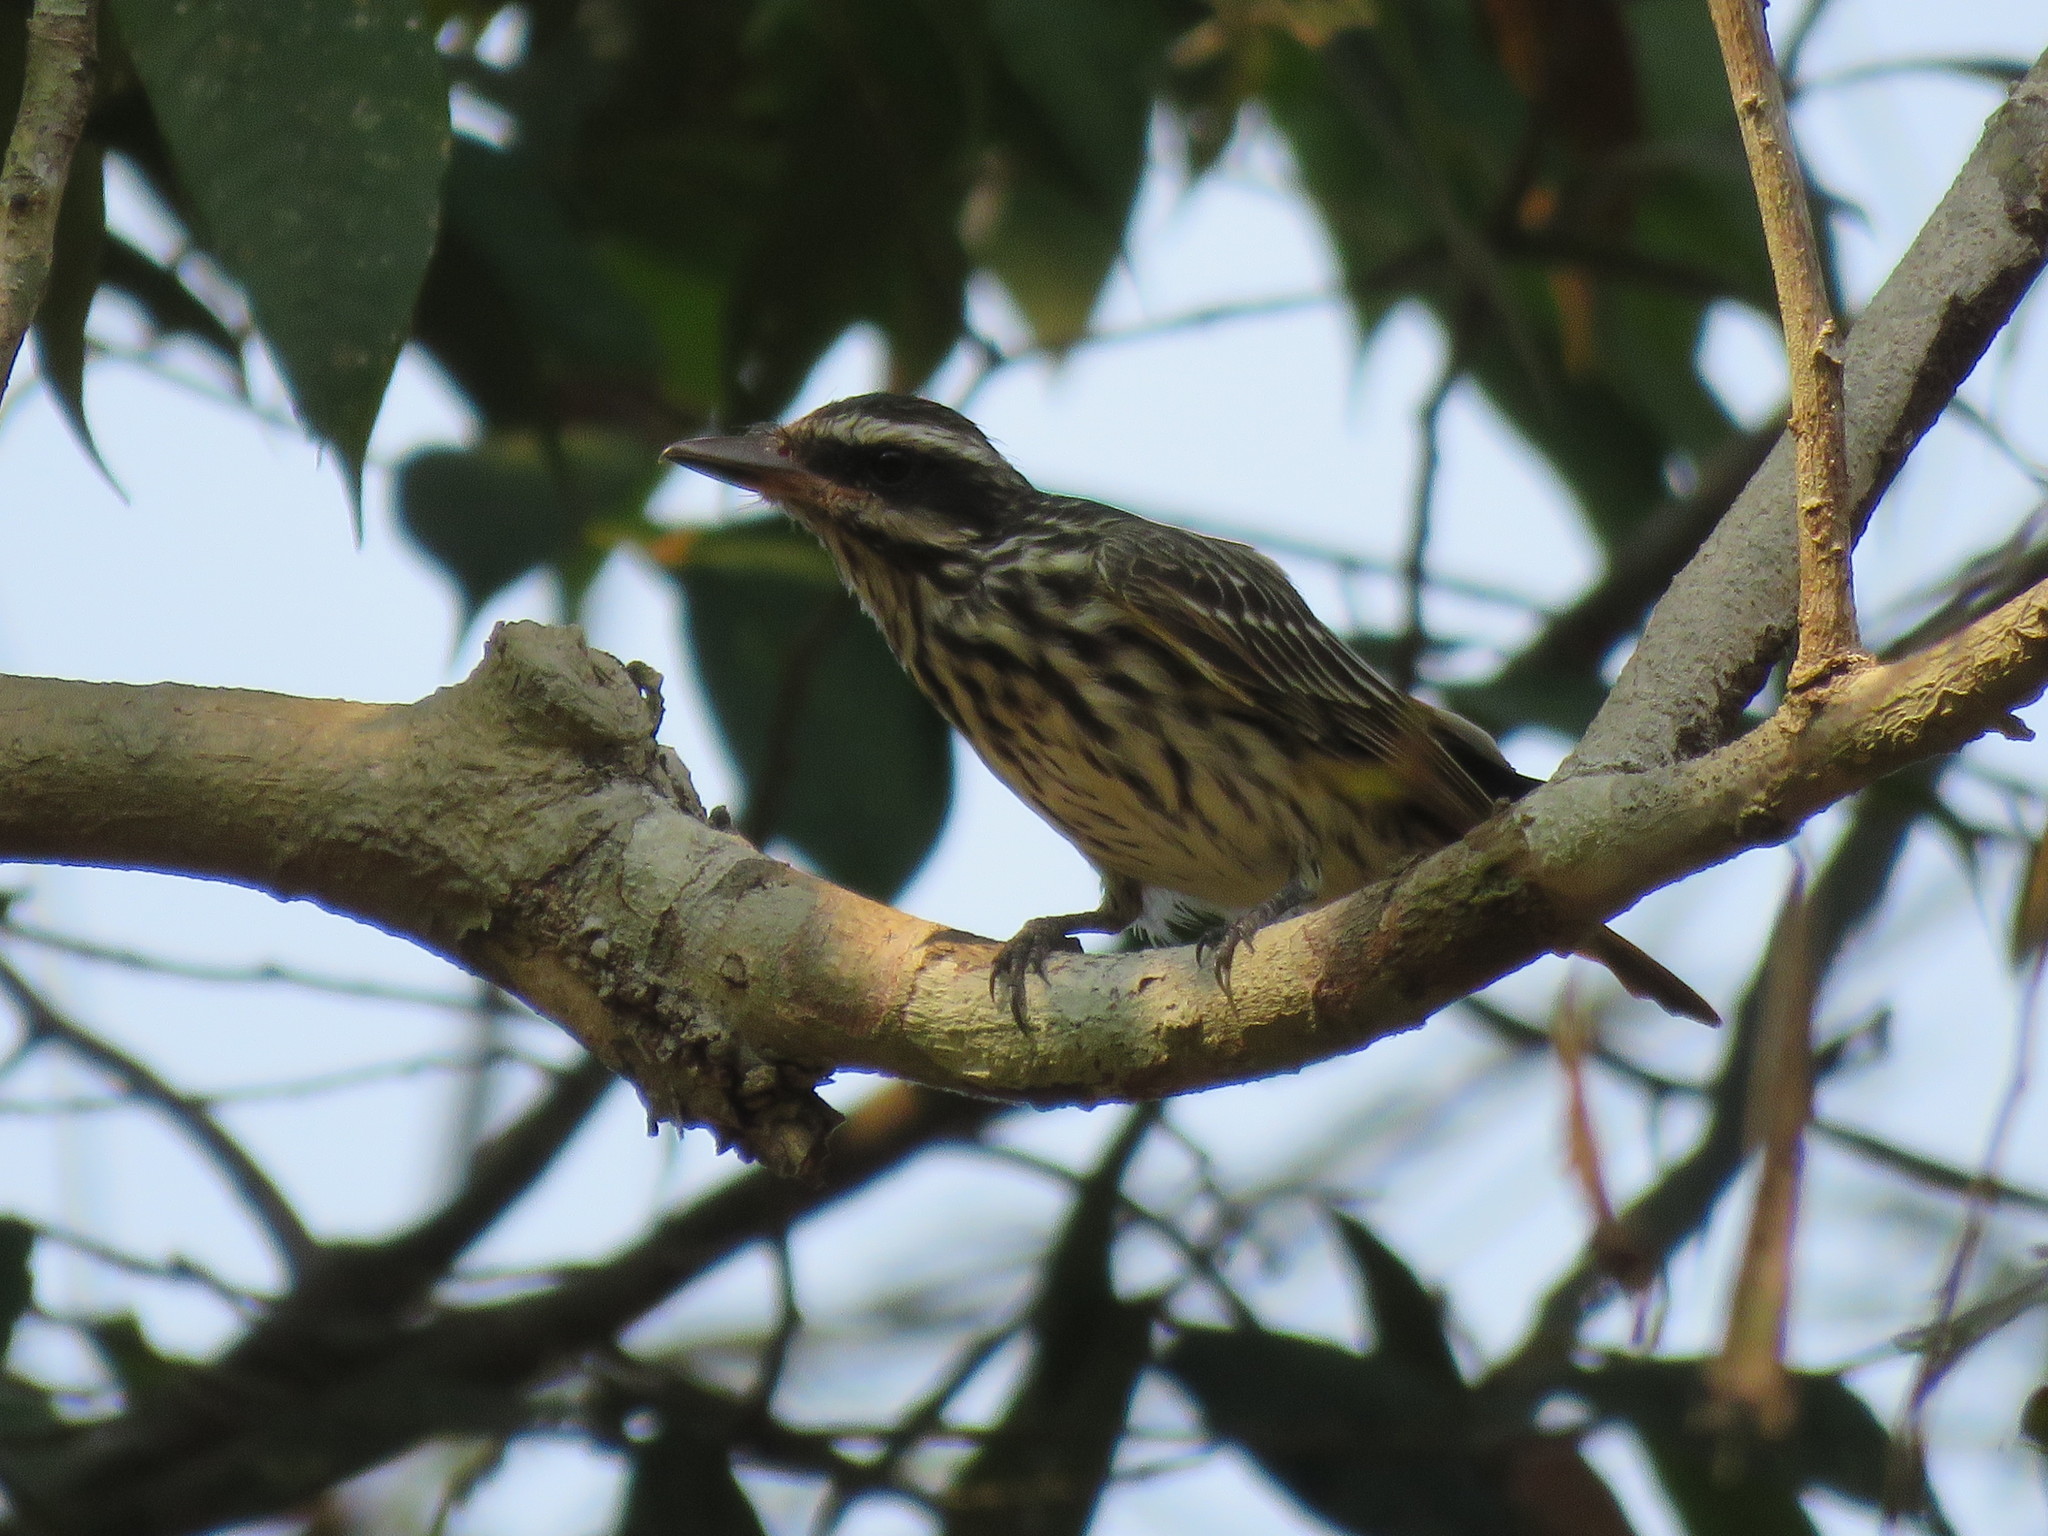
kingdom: Animalia
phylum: Chordata
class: Aves
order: Passeriformes
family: Tyrannidae
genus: Myiodynastes
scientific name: Myiodynastes maculatus
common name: Streaked flycatcher
